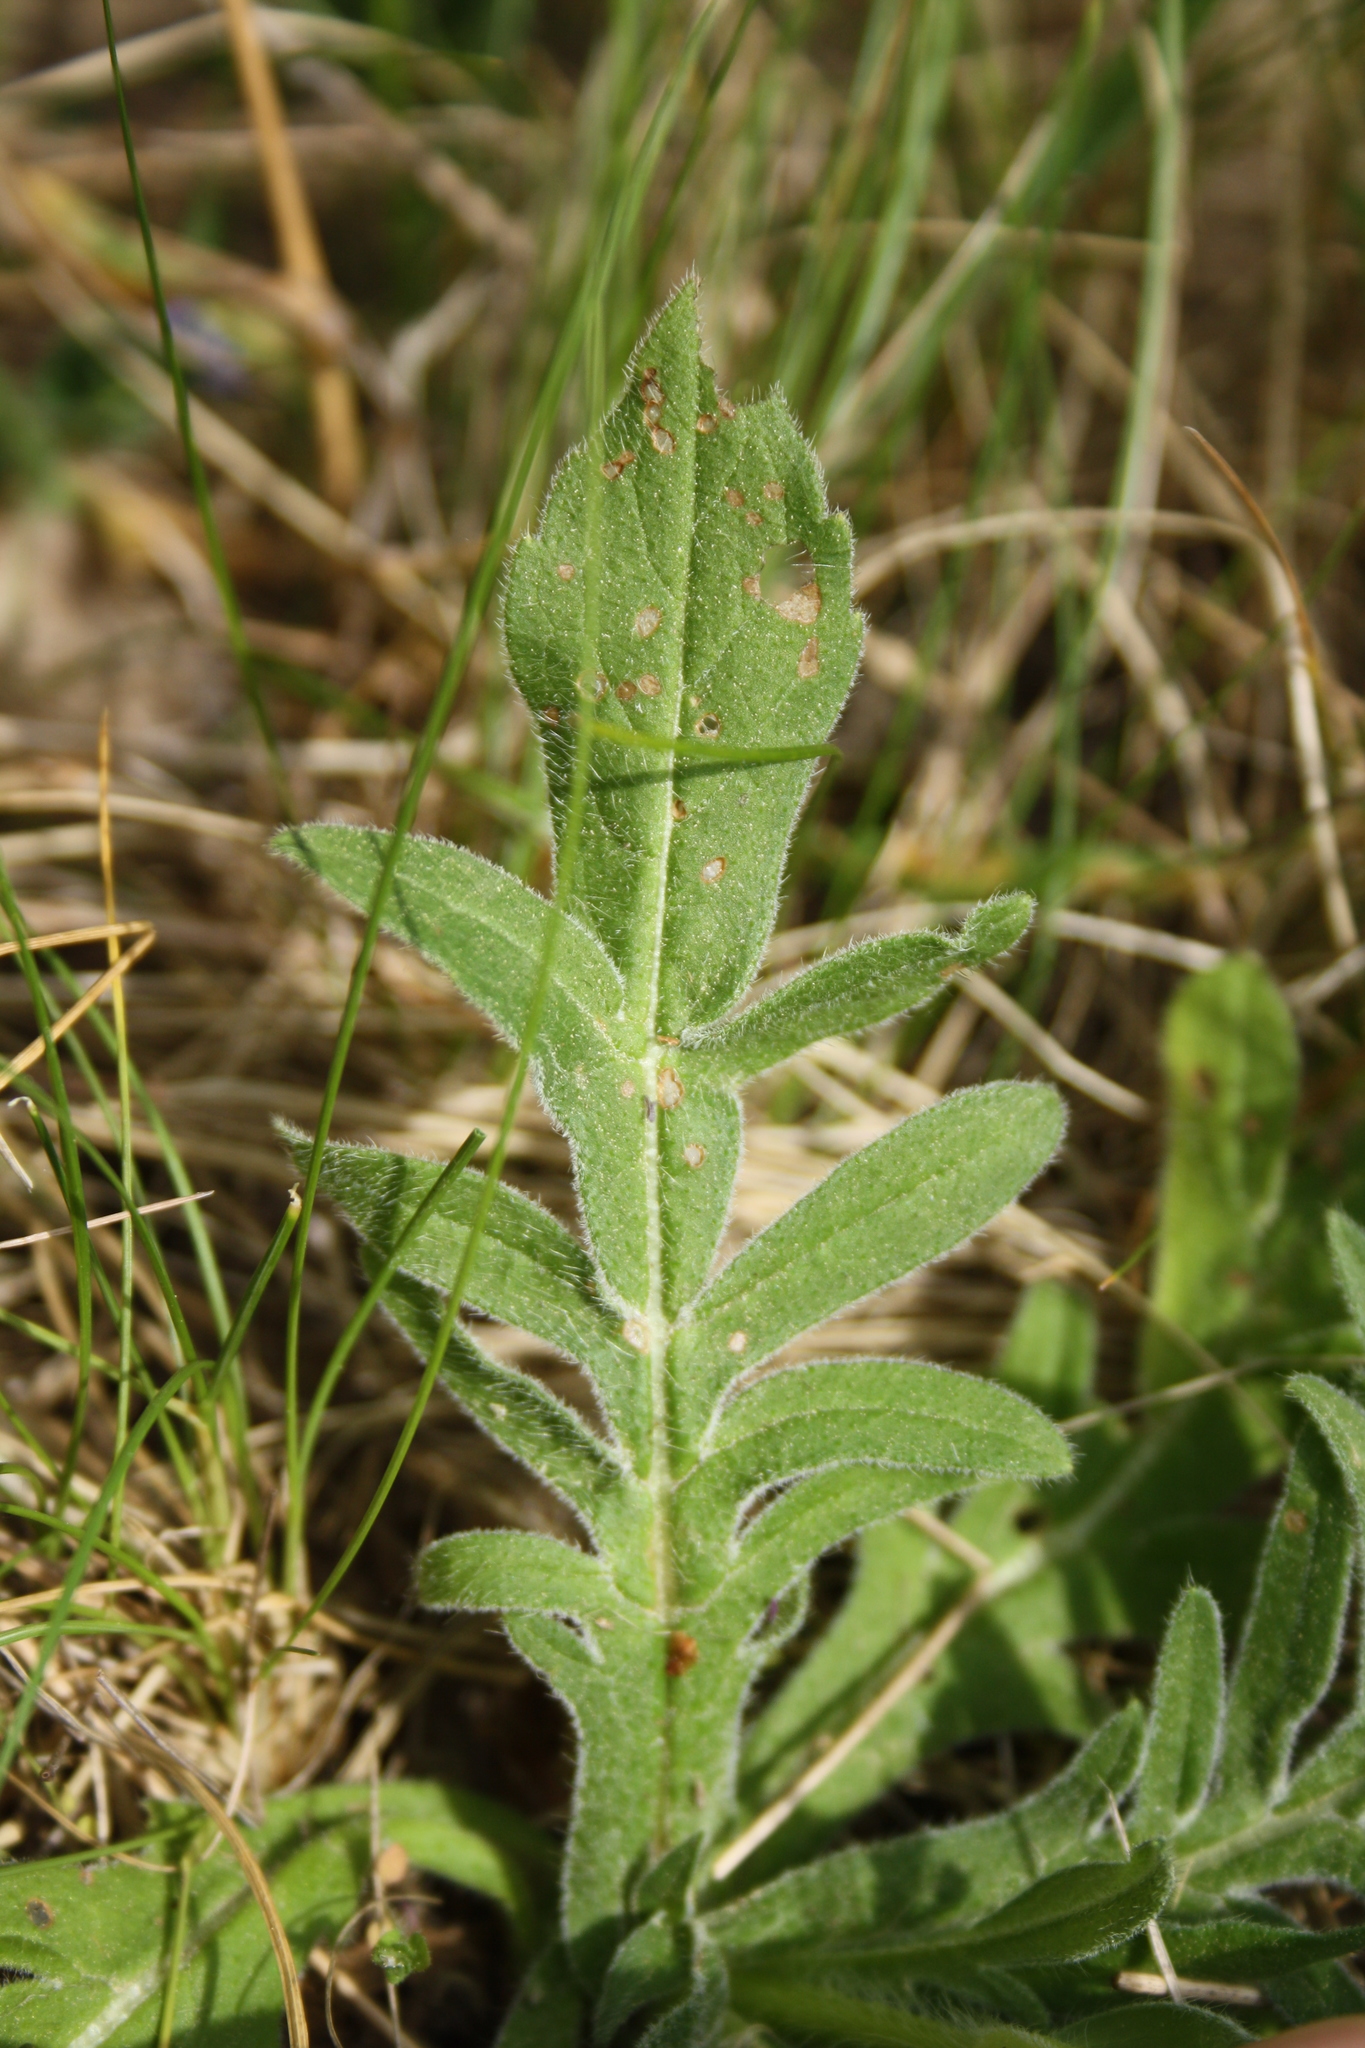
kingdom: Plantae
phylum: Tracheophyta
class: Magnoliopsida
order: Dipsacales
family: Caprifoliaceae
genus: Knautia
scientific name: Knautia arvensis
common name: Field scabiosa
